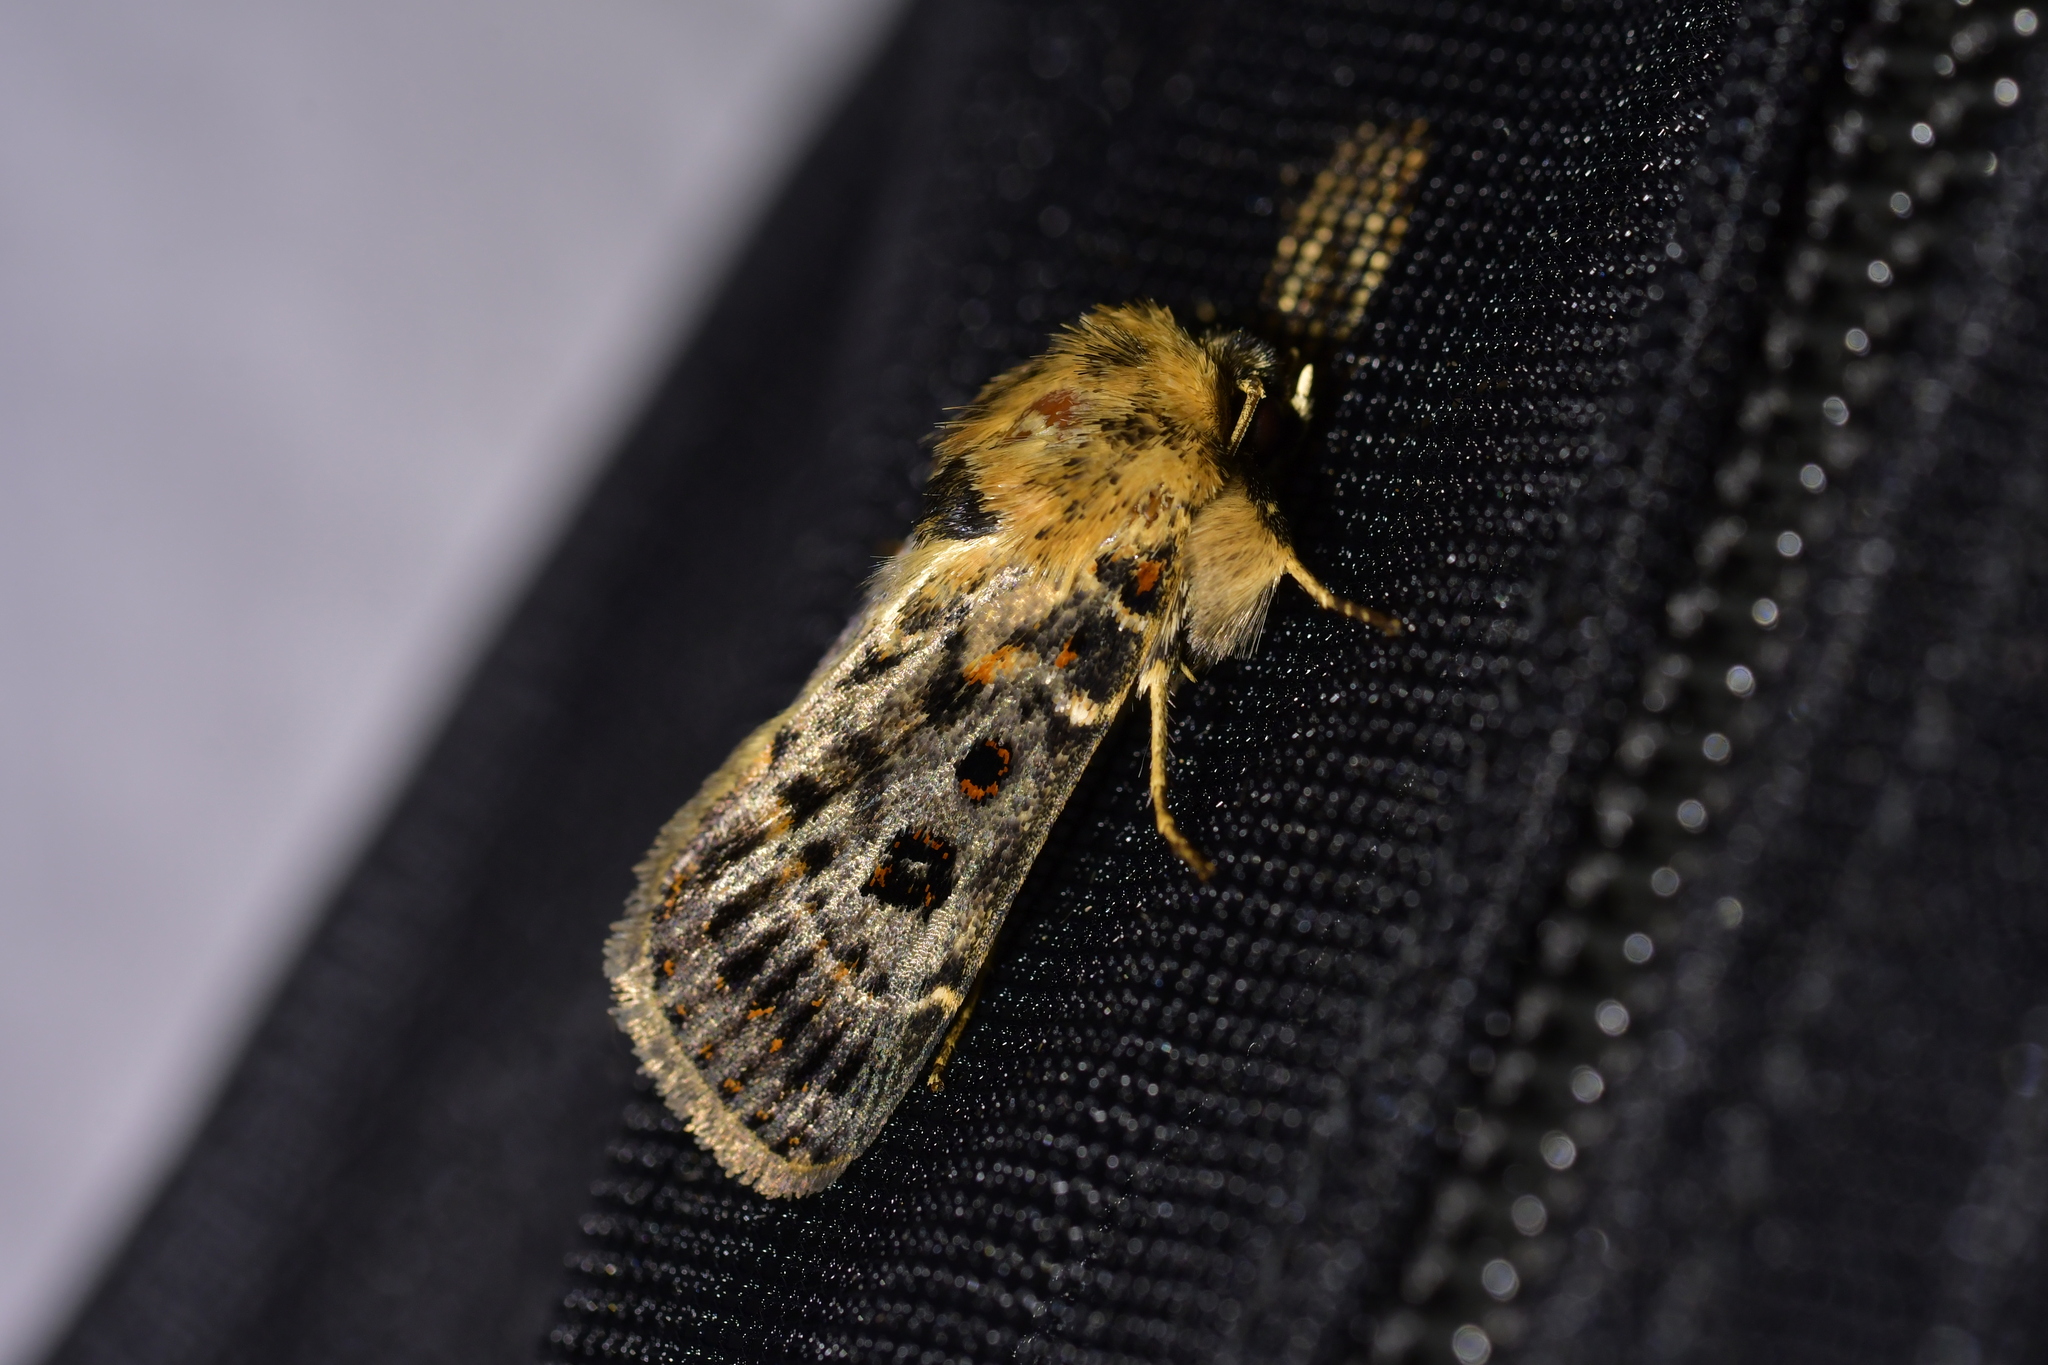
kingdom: Animalia
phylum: Arthropoda
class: Insecta
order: Lepidoptera
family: Noctuidae
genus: Proteuxoa
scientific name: Proteuxoa sanguinipuncta
